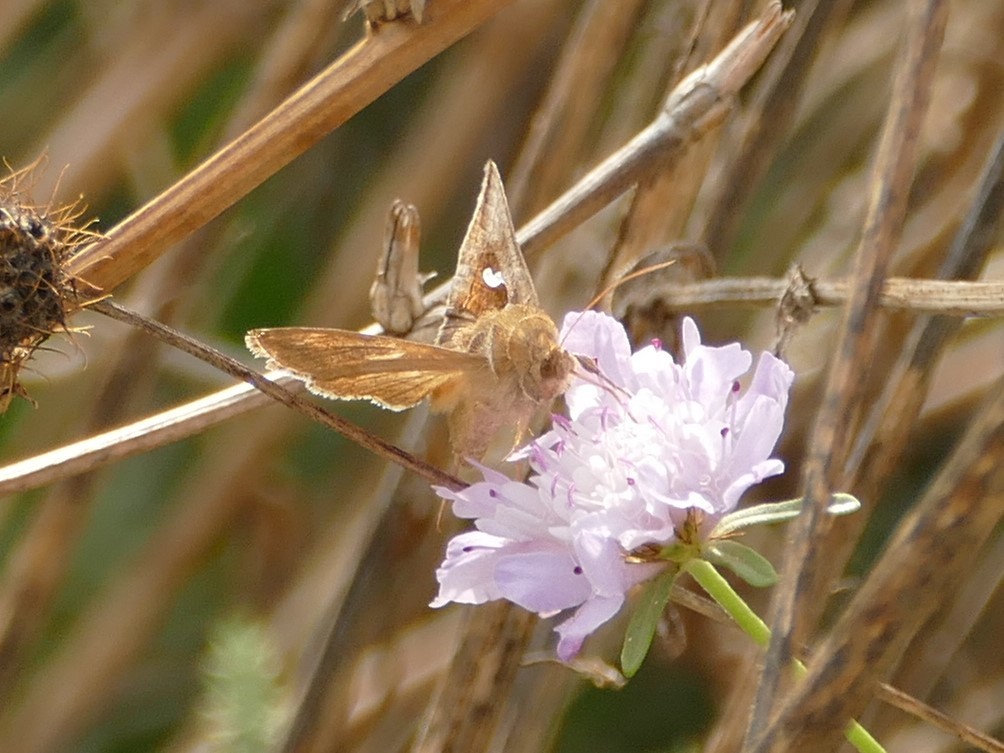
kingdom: Animalia
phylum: Arthropoda
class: Insecta
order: Lepidoptera
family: Noctuidae
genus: Macdunnoughia
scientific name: Macdunnoughia confusa
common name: Dewick's plusia
